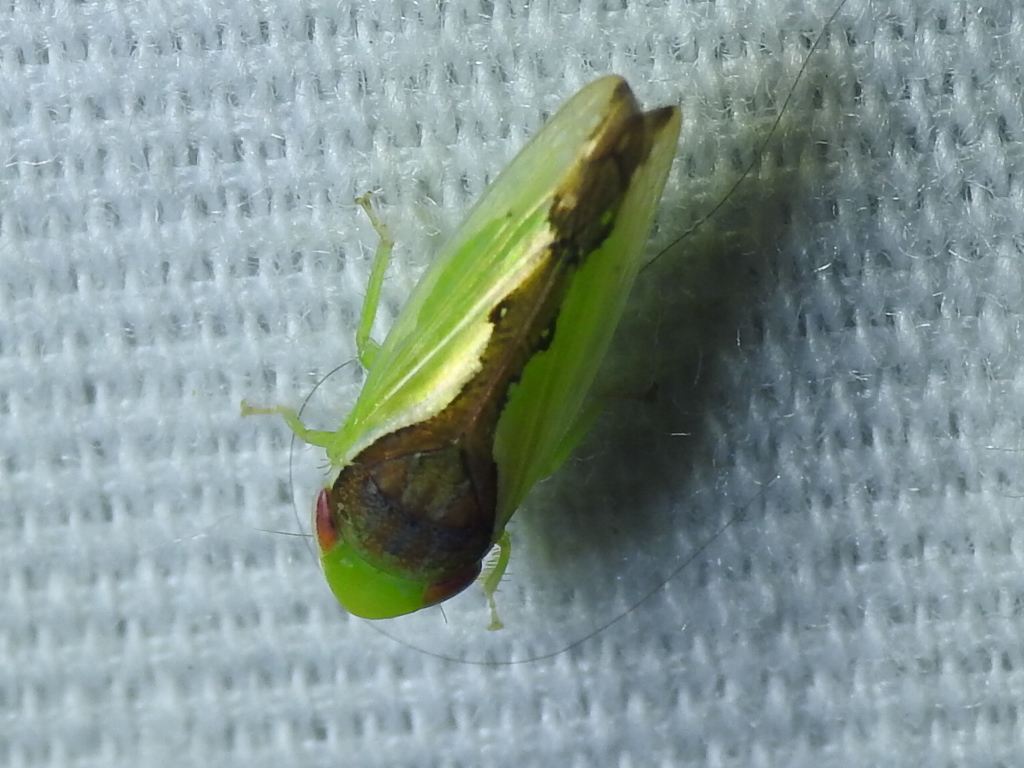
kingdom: Animalia
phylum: Arthropoda
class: Insecta
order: Hemiptera
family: Cicadellidae
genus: Omansobara ing
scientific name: Omansobara ing Omansobara palliolata
